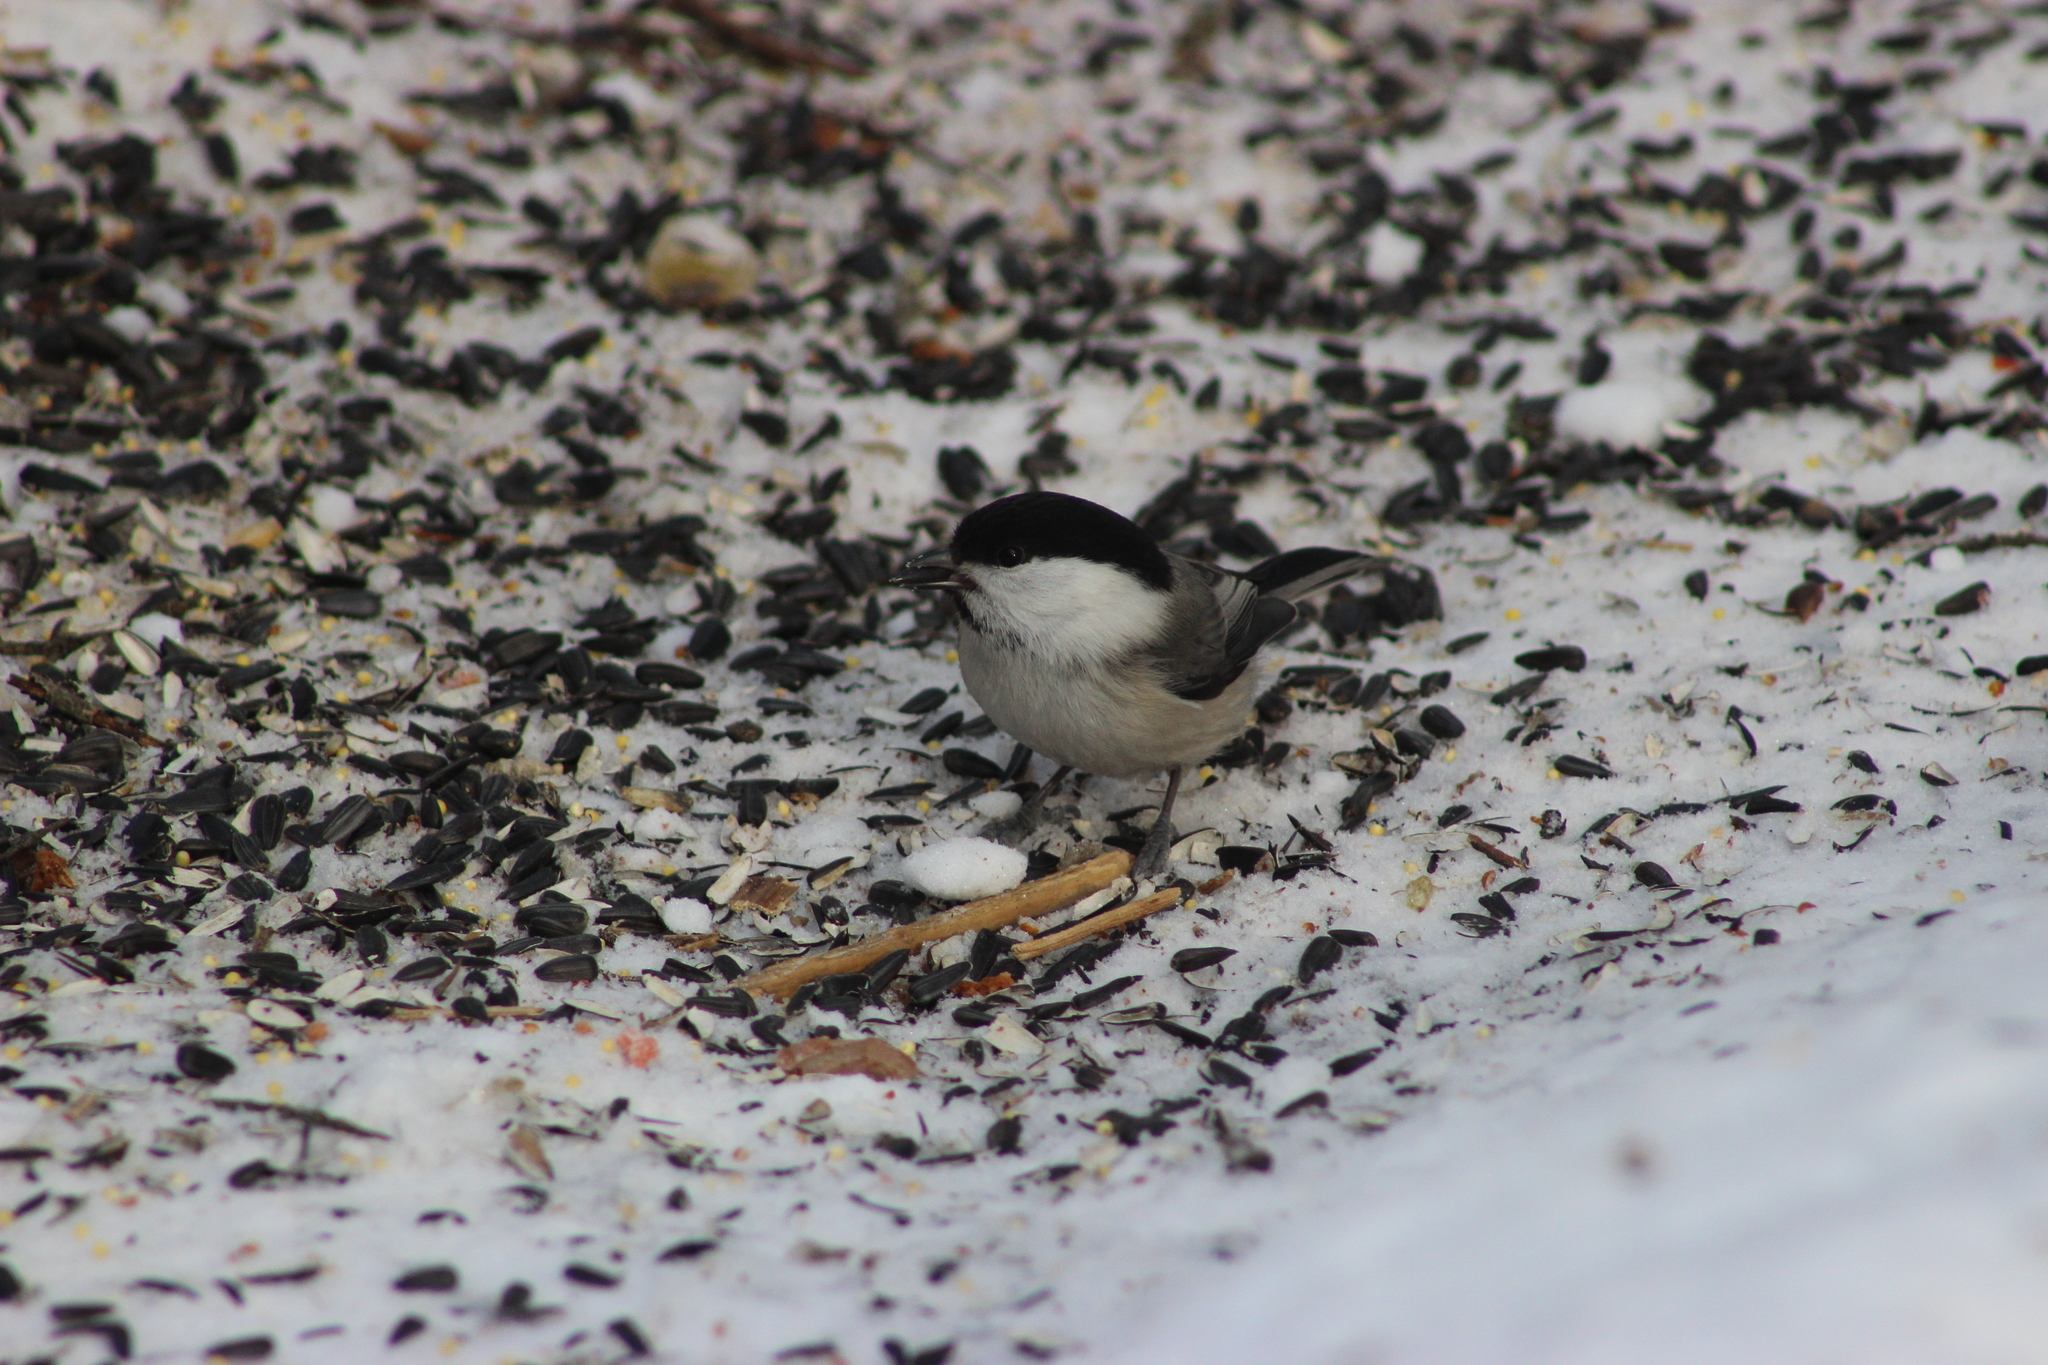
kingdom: Animalia
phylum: Chordata
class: Aves
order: Passeriformes
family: Paridae
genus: Poecile
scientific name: Poecile montanus
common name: Willow tit
